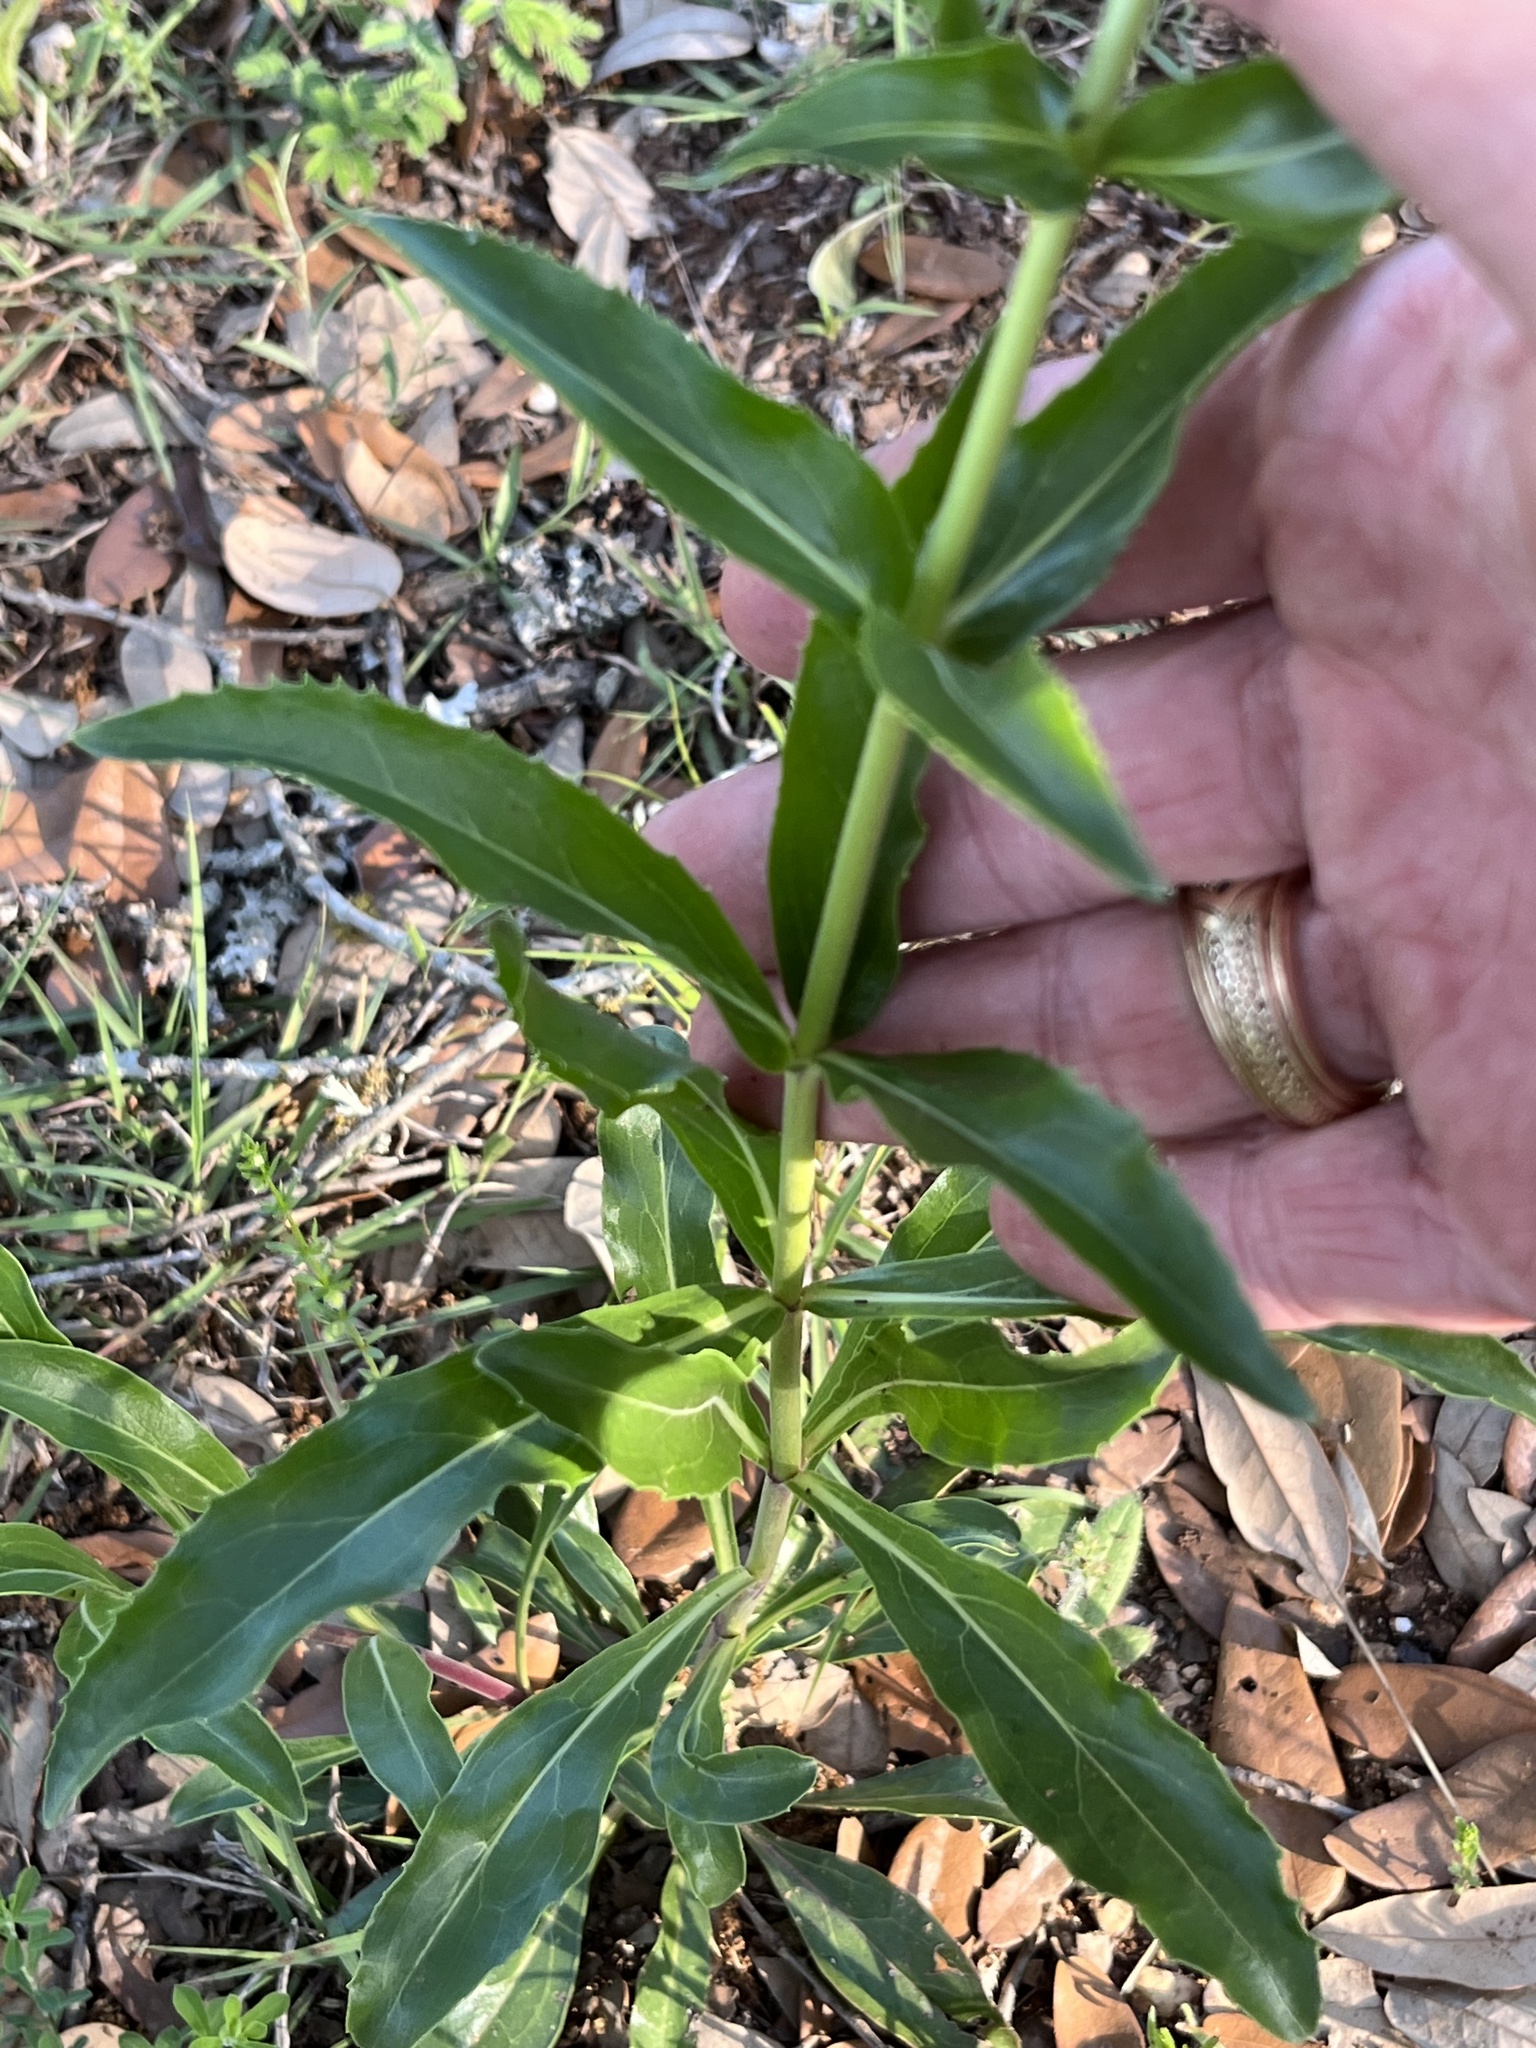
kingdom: Plantae
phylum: Tracheophyta
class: Magnoliopsida
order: Lamiales
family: Plantaginaceae
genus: Penstemon
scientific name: Penstemon cobaea
